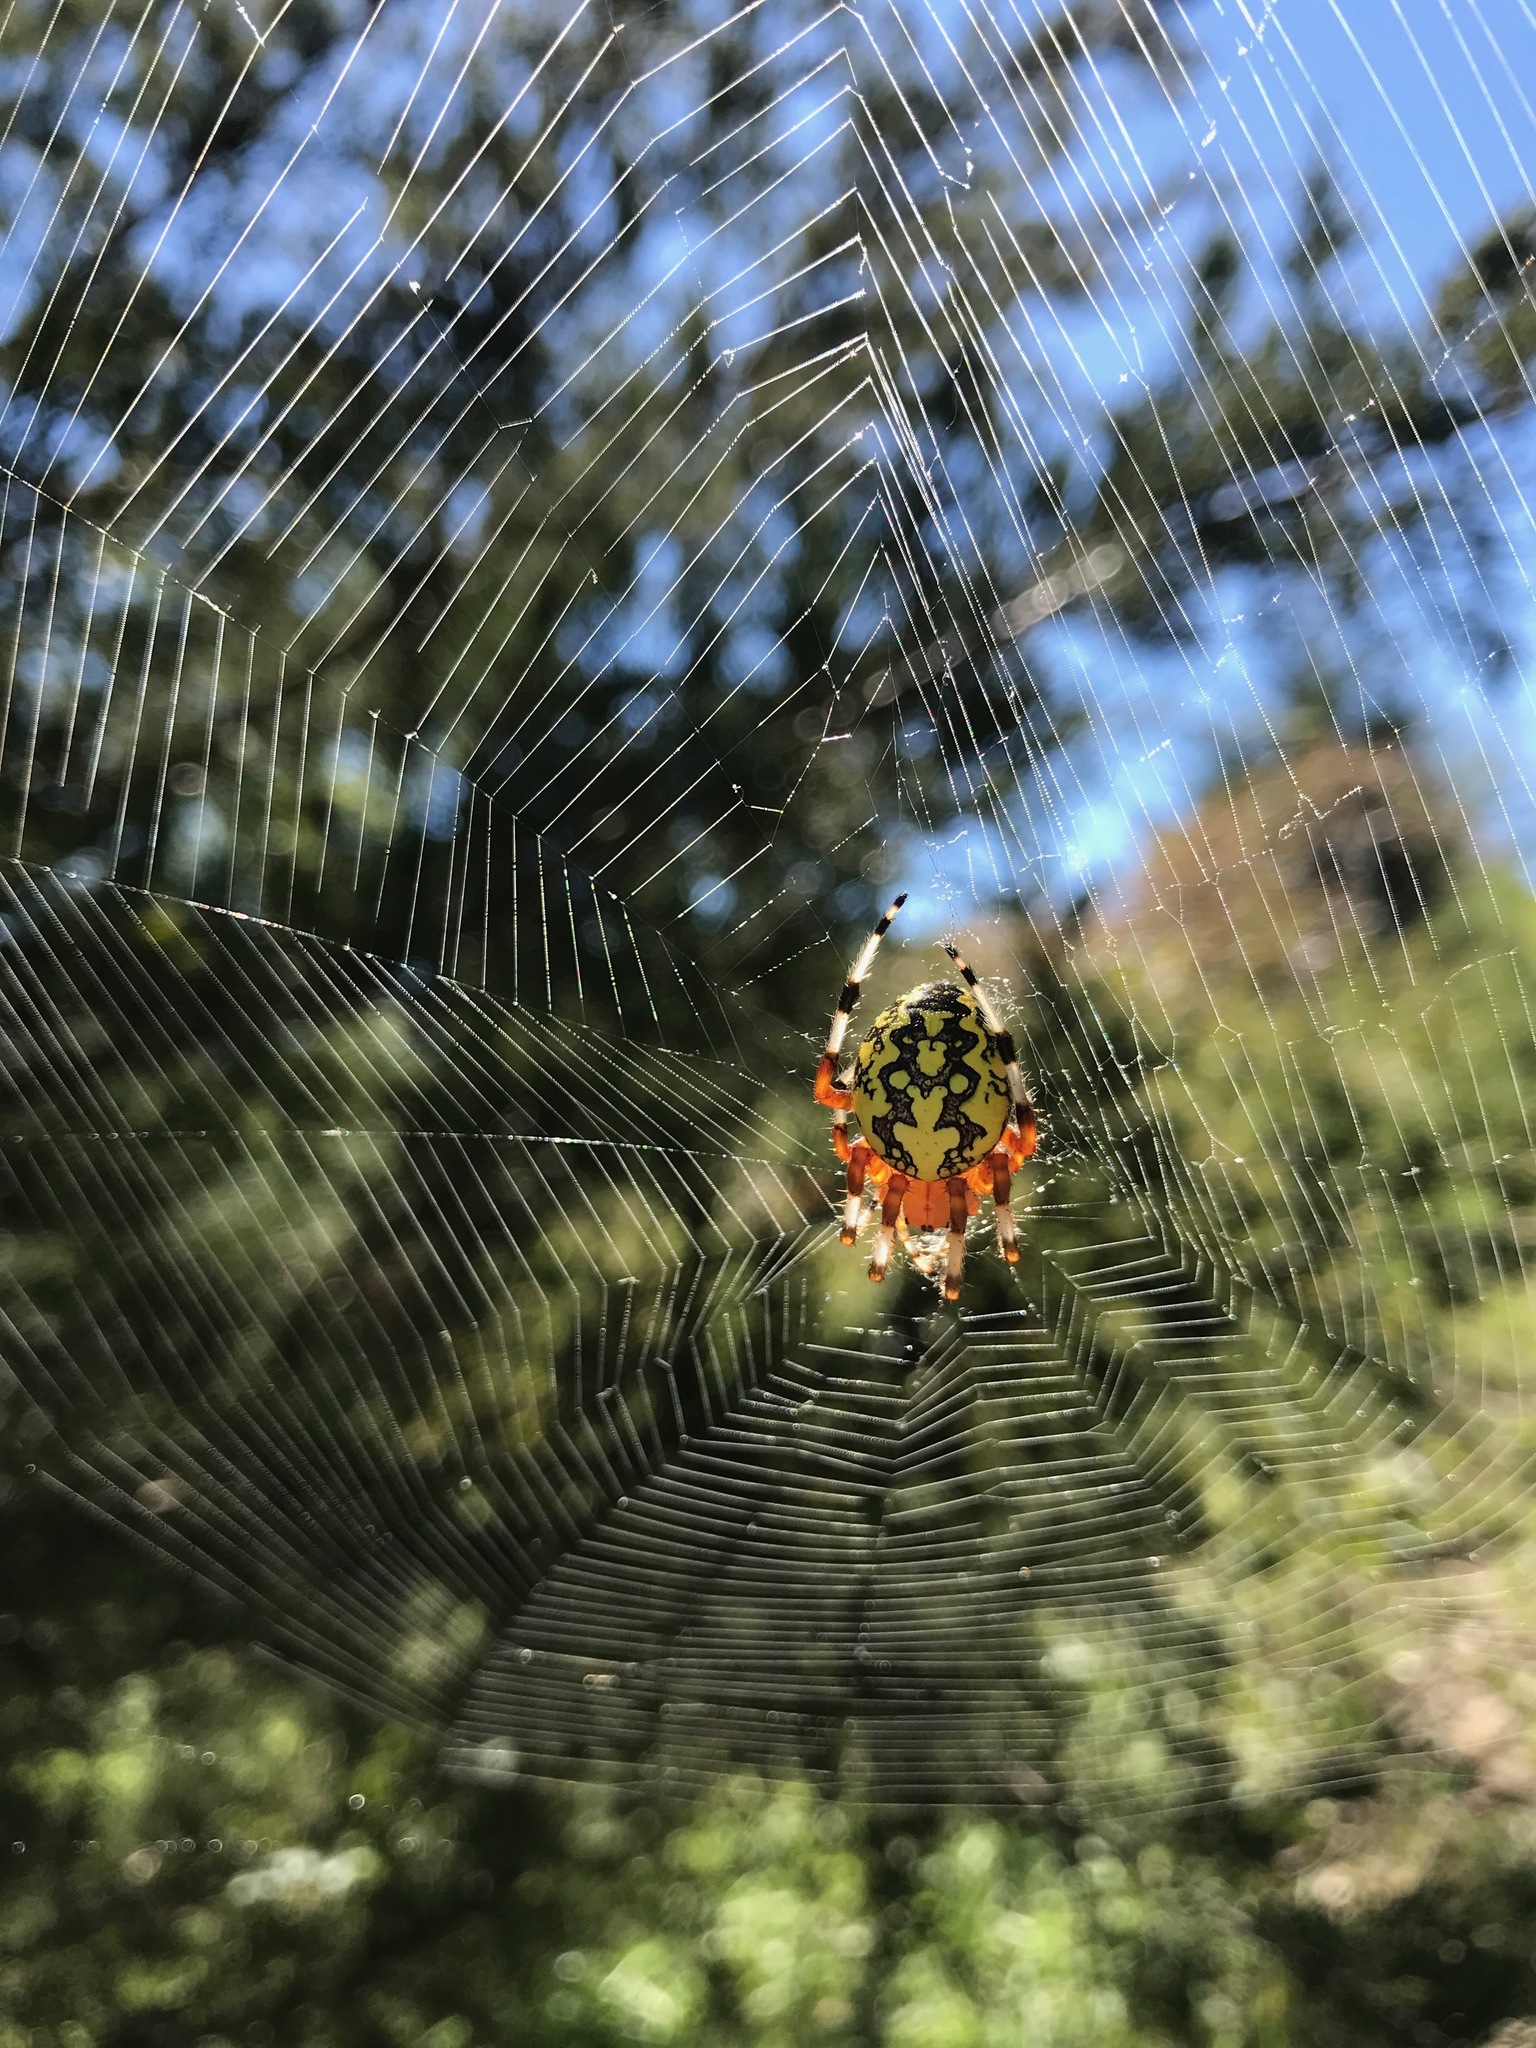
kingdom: Animalia
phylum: Arthropoda
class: Arachnida
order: Araneae
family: Araneidae
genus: Araneus
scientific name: Araneus marmoreus
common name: Marbled orbweaver
